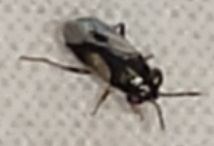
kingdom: Animalia
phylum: Arthropoda
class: Insecta
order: Hemiptera
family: Geocoridae
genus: Geocoris
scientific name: Geocoris lineolus
